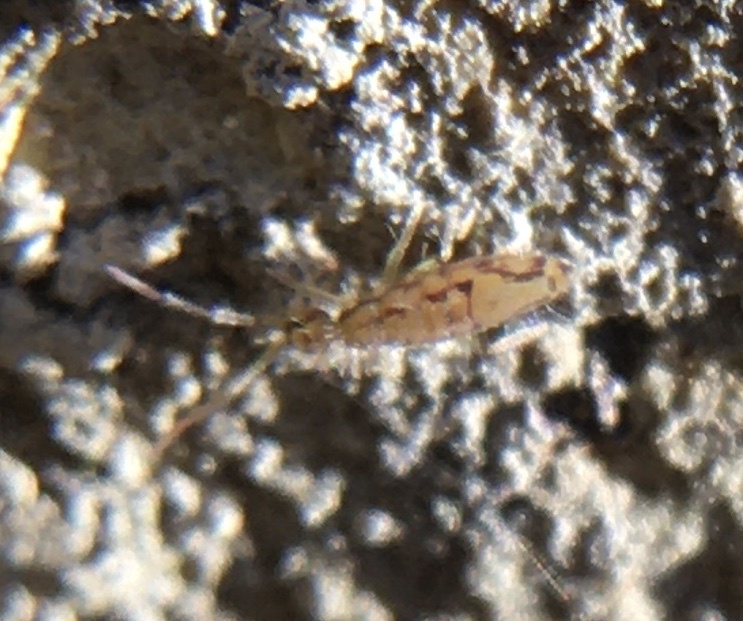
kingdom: Animalia
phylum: Arthropoda
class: Collembola
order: Entomobryomorpha
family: Entomobryidae
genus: Entomobrya
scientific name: Entomobrya intermedia
